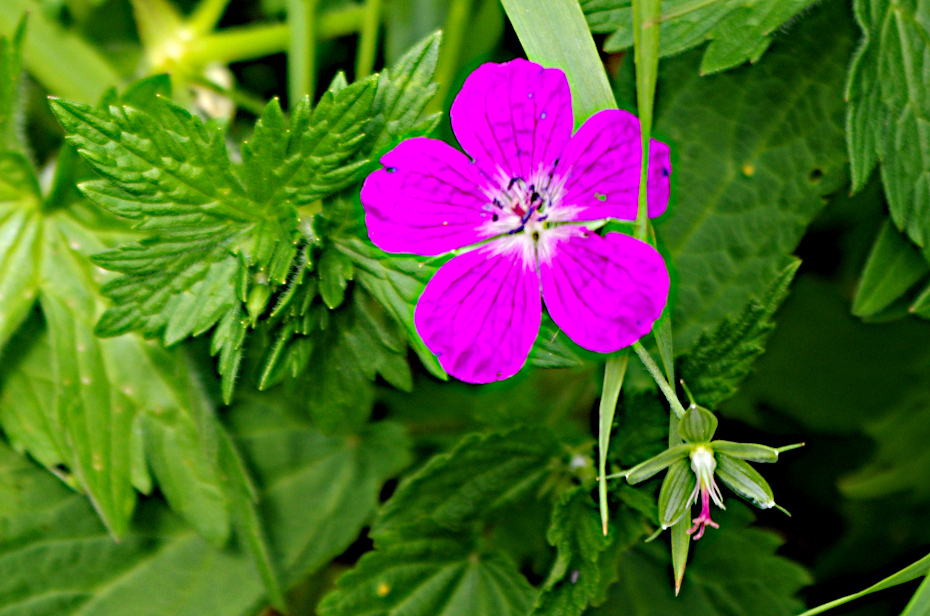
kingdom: Plantae
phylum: Tracheophyta
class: Magnoliopsida
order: Geraniales
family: Geraniaceae
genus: Geranium
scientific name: Geranium palustre
